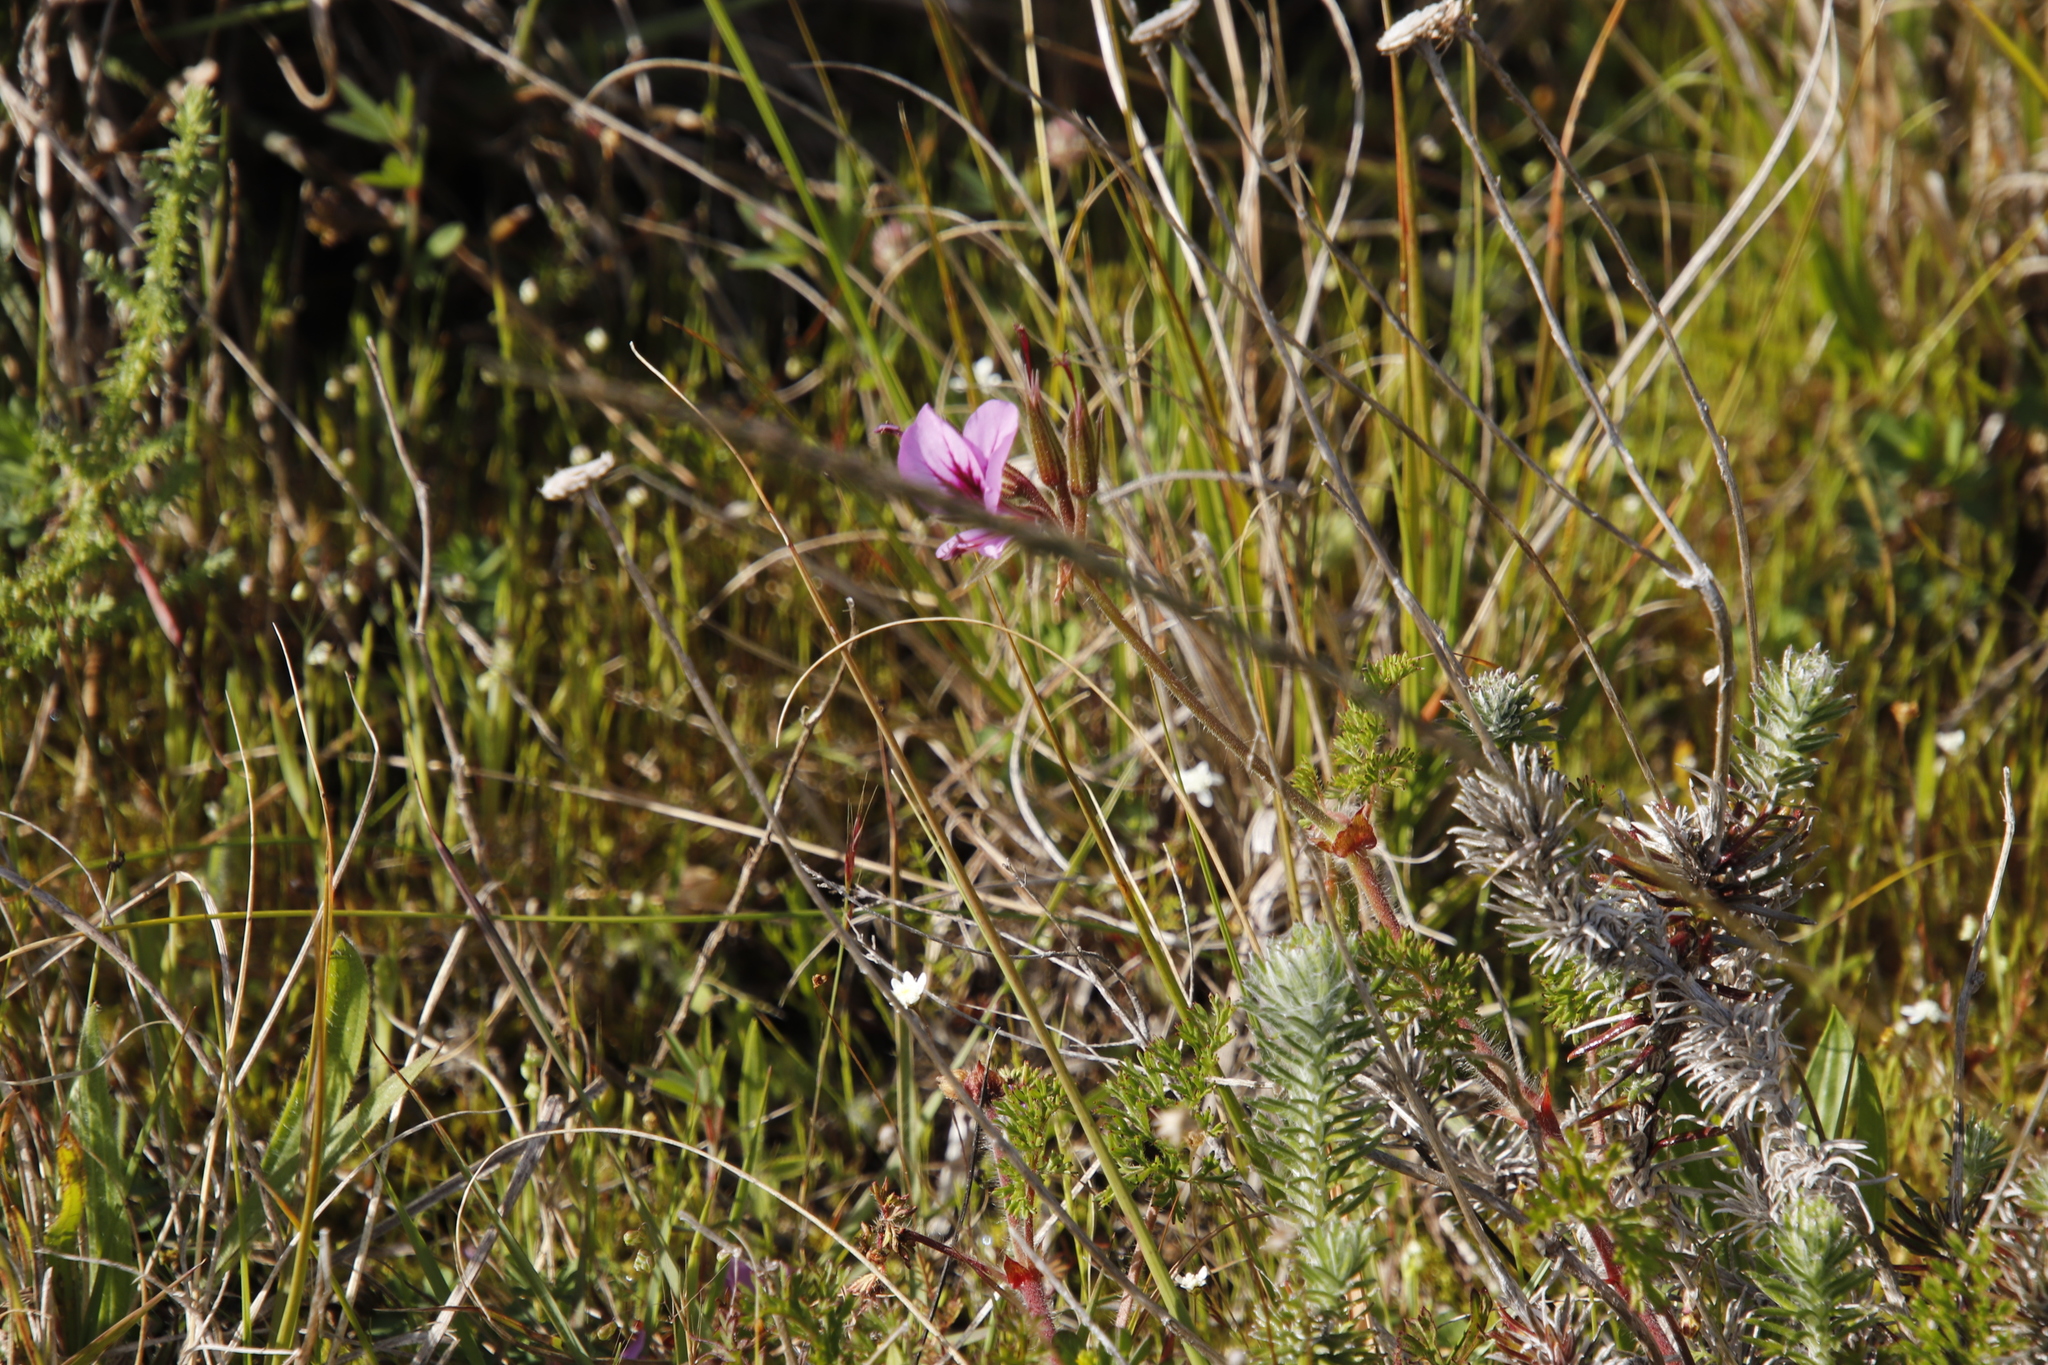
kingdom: Plantae
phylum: Tracheophyta
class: Magnoliopsida
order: Geraniales
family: Geraniaceae
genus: Pelargonium
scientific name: Pelargonium myrrhifolium
